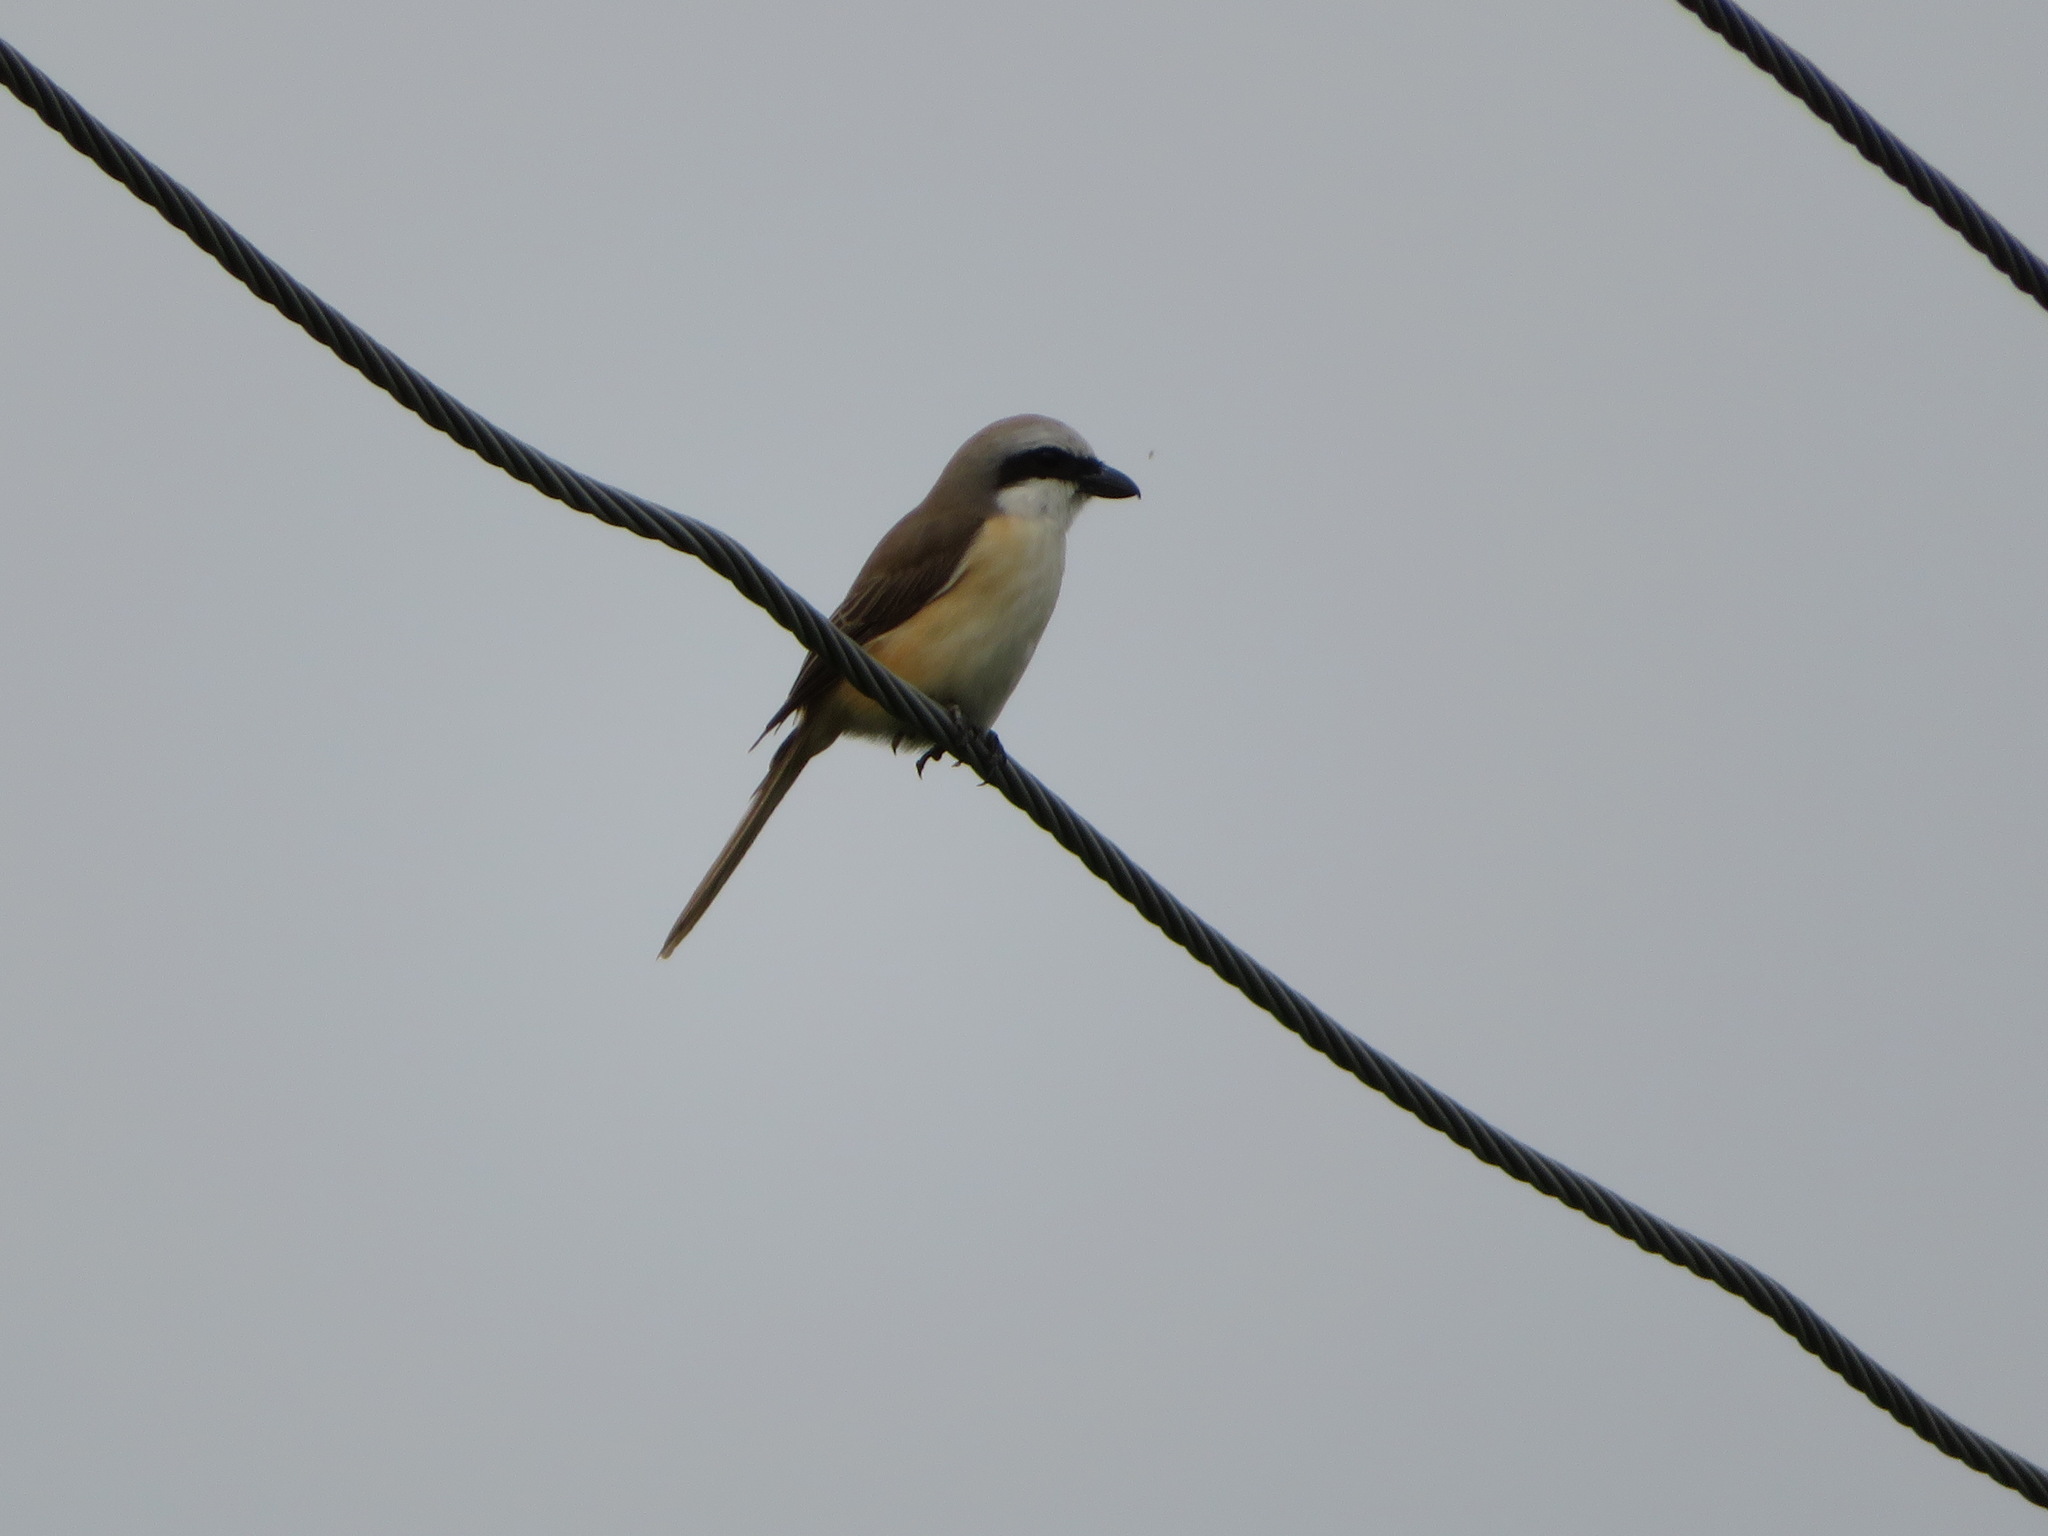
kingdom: Animalia
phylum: Chordata
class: Aves
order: Passeriformes
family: Laniidae
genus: Lanius
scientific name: Lanius cristatus
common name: Brown shrike
